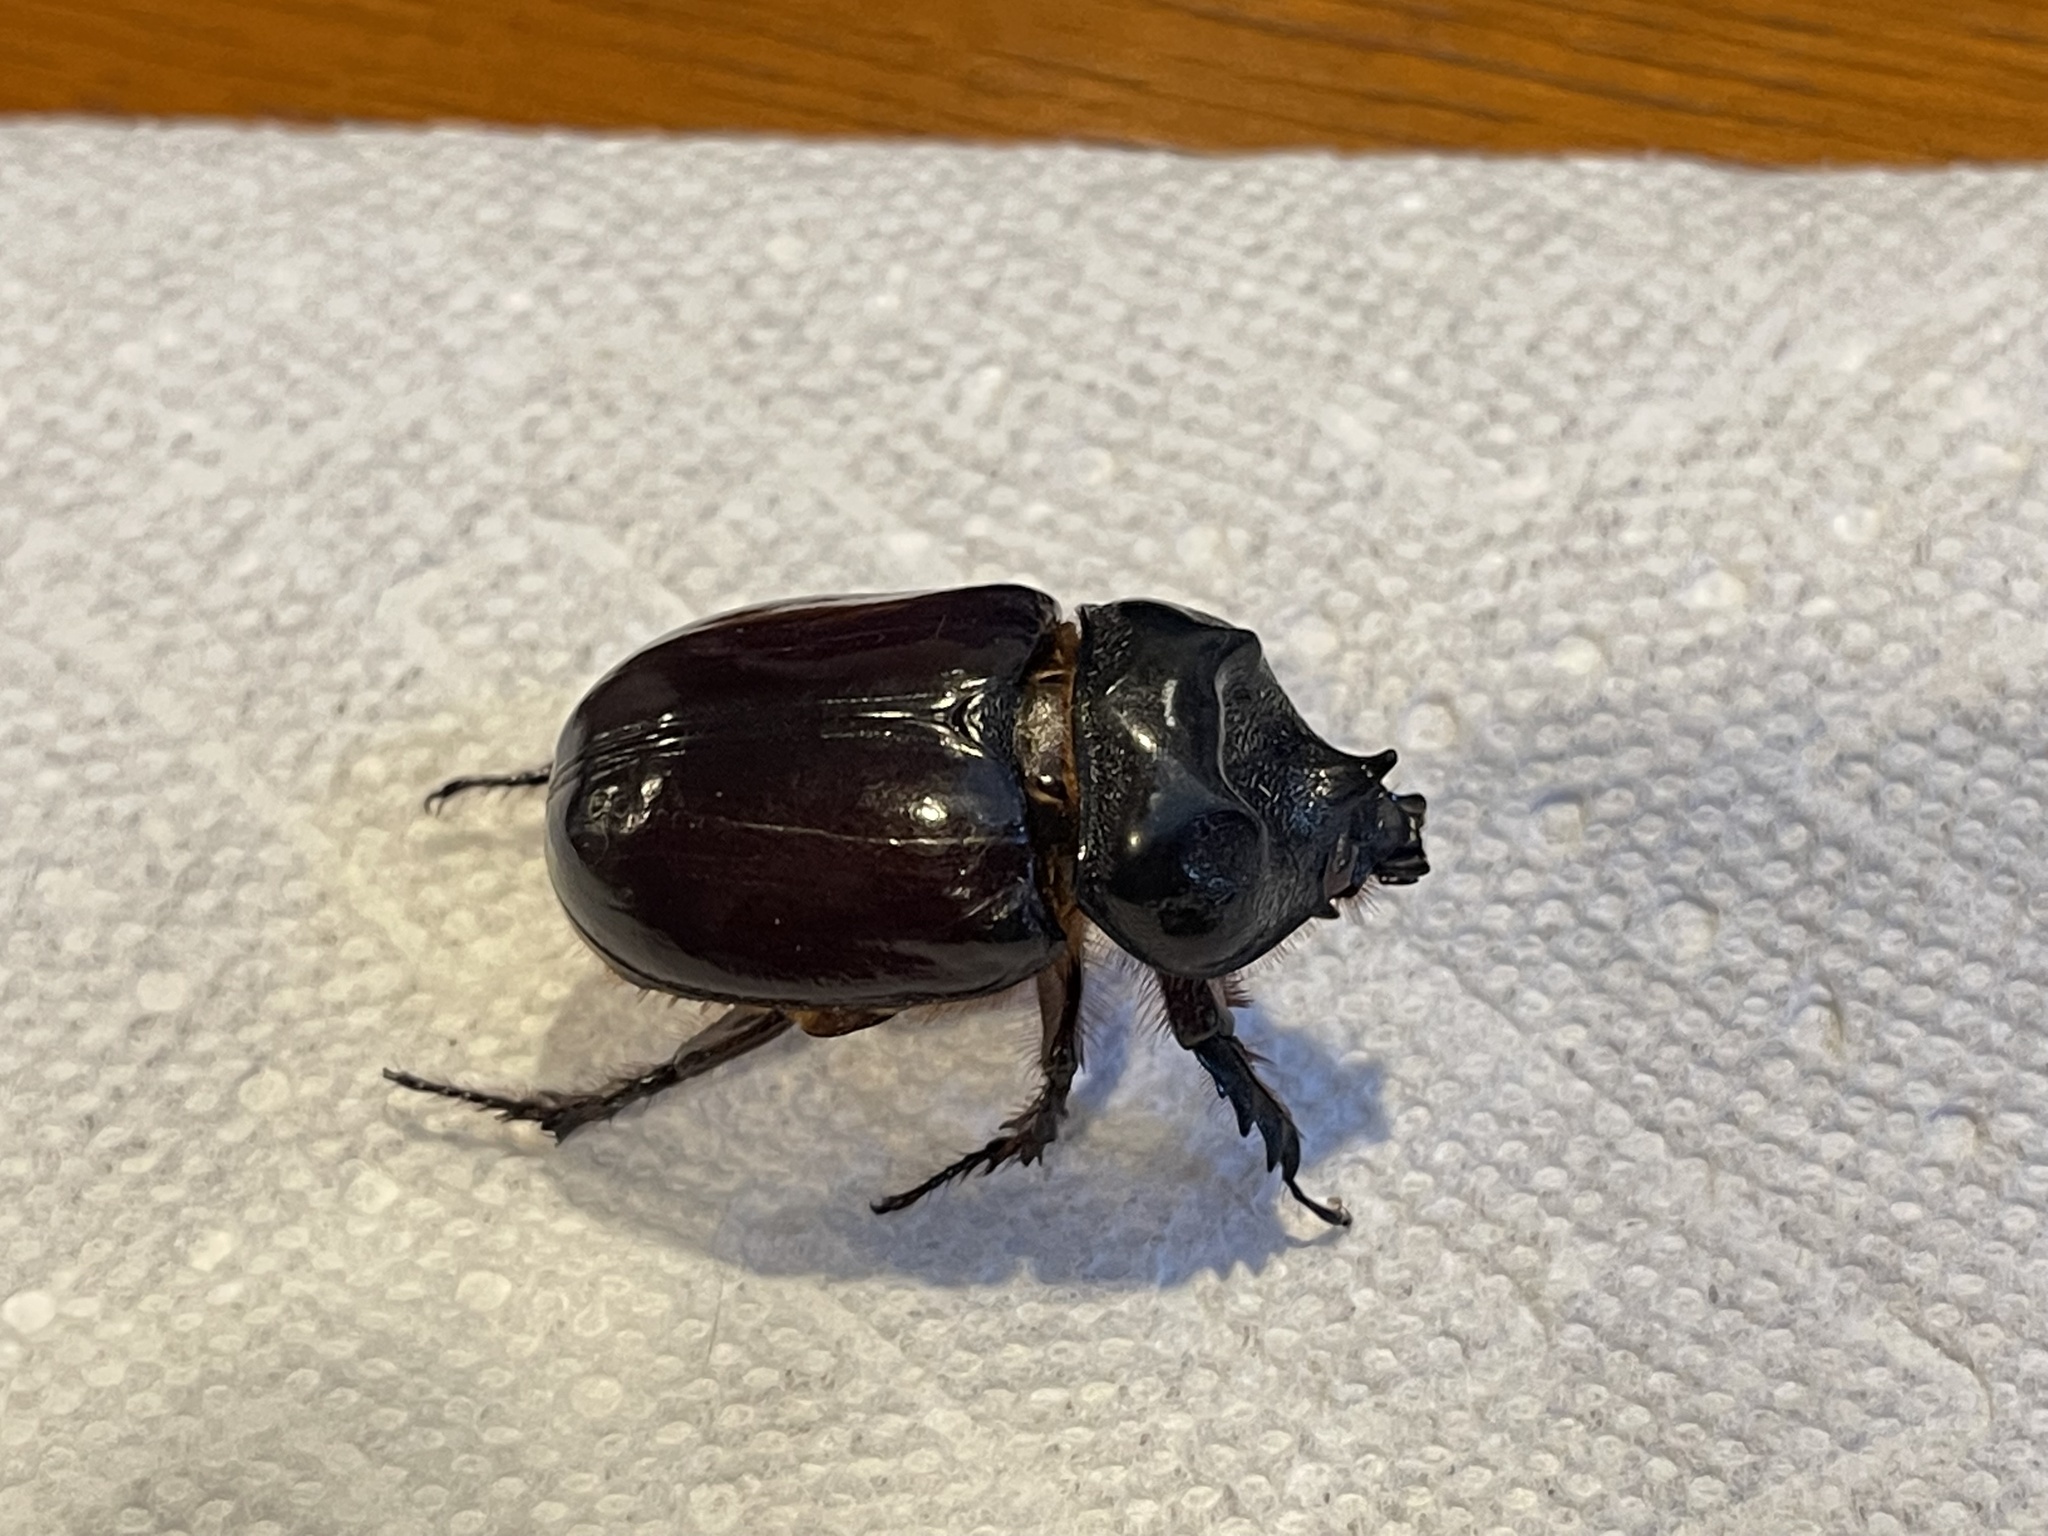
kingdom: Animalia
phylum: Arthropoda
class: Insecta
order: Coleoptera
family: Scarabaeidae
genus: Strategus
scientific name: Strategus aloeus
